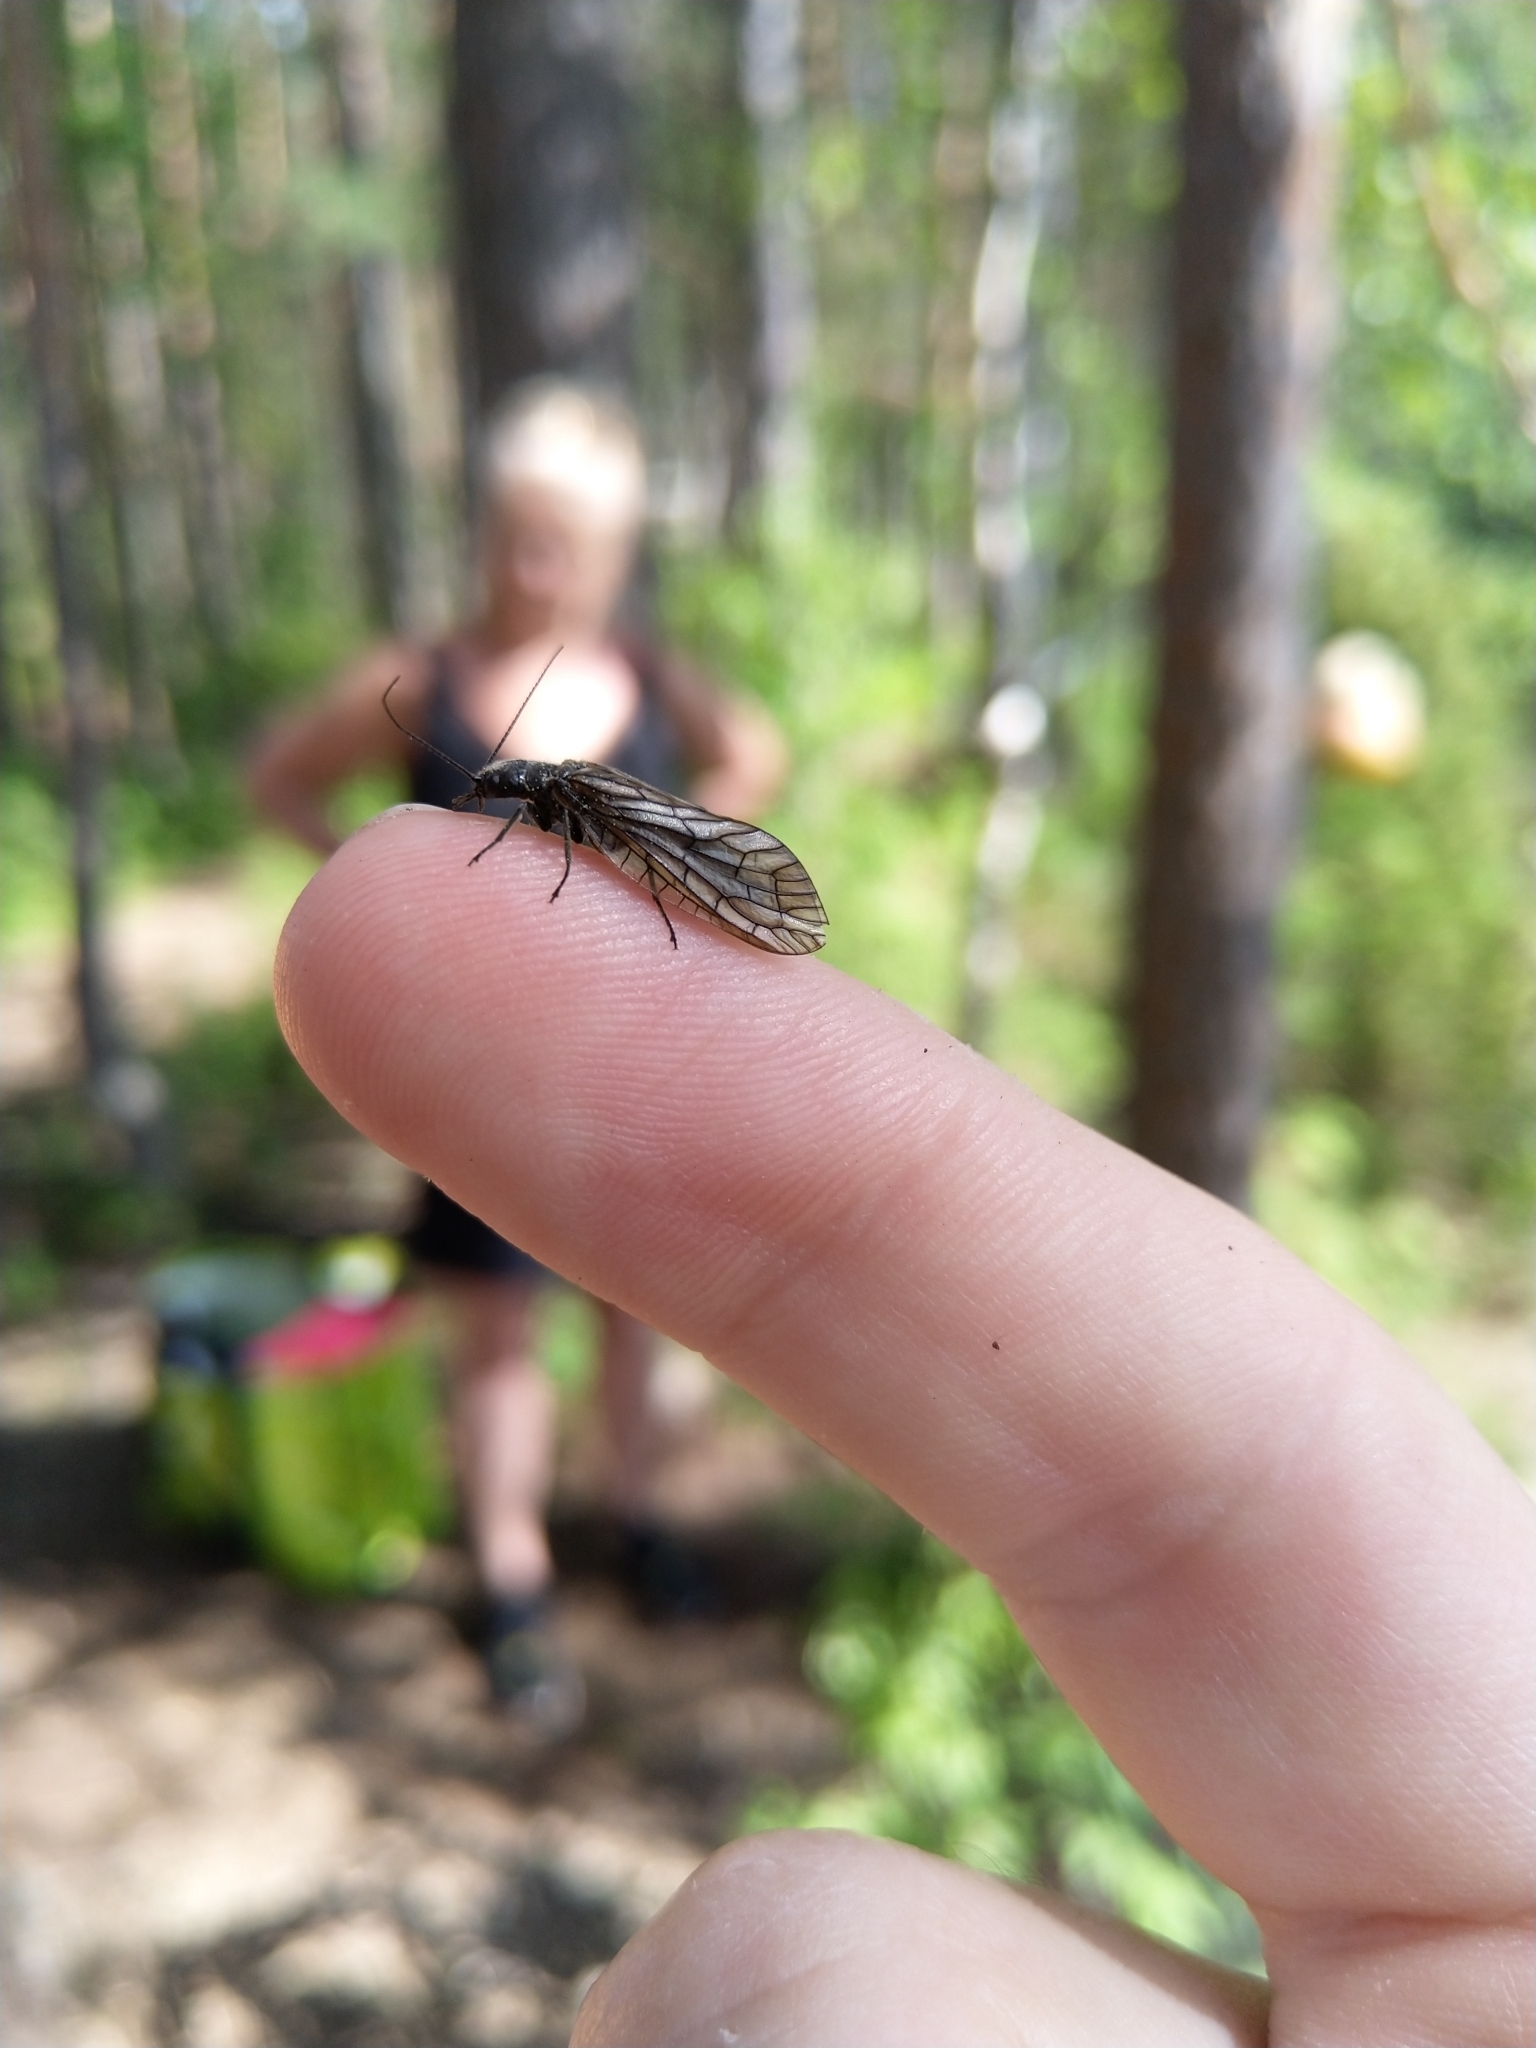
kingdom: Animalia
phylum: Arthropoda
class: Insecta
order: Megaloptera
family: Sialidae
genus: Sialis
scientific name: Sialis
